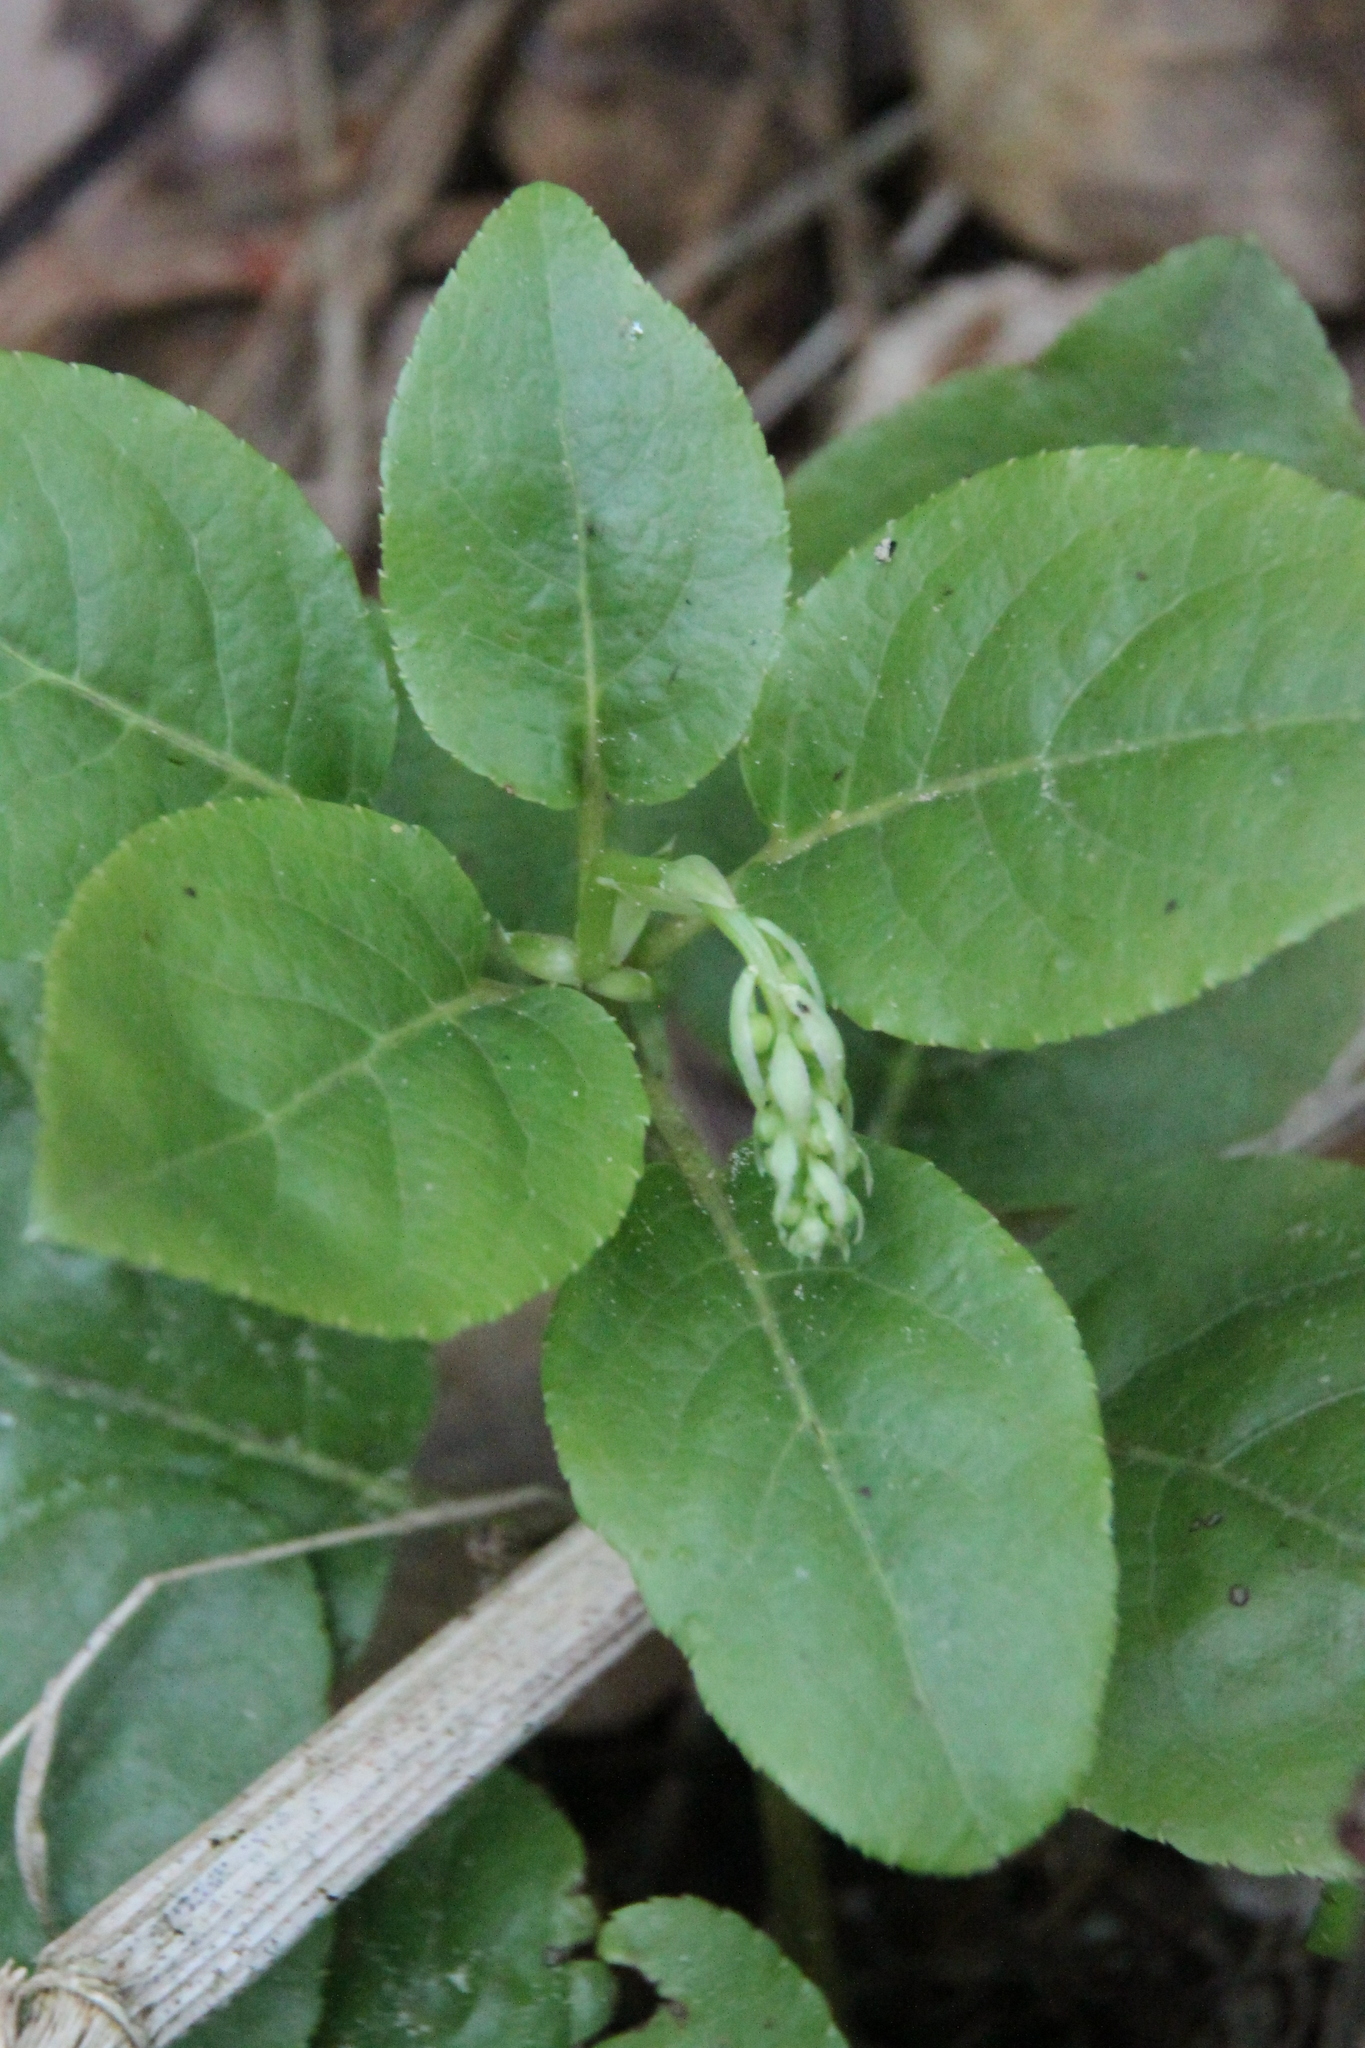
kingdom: Plantae
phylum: Tracheophyta
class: Magnoliopsida
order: Ericales
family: Ericaceae
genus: Orthilia
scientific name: Orthilia secunda
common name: One-sided orthilia
